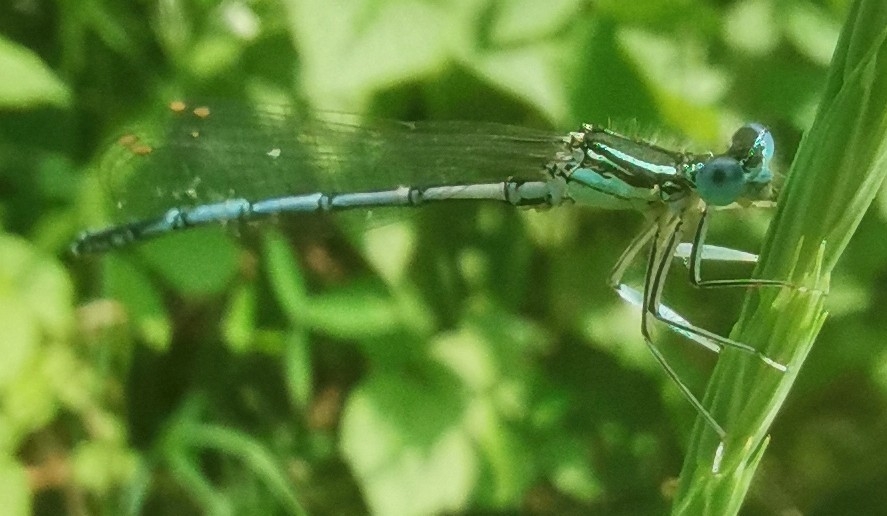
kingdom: Animalia
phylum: Arthropoda
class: Insecta
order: Odonata
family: Platycnemididae
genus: Platycnemis
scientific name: Platycnemis pennipes
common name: White-legged damselfly
